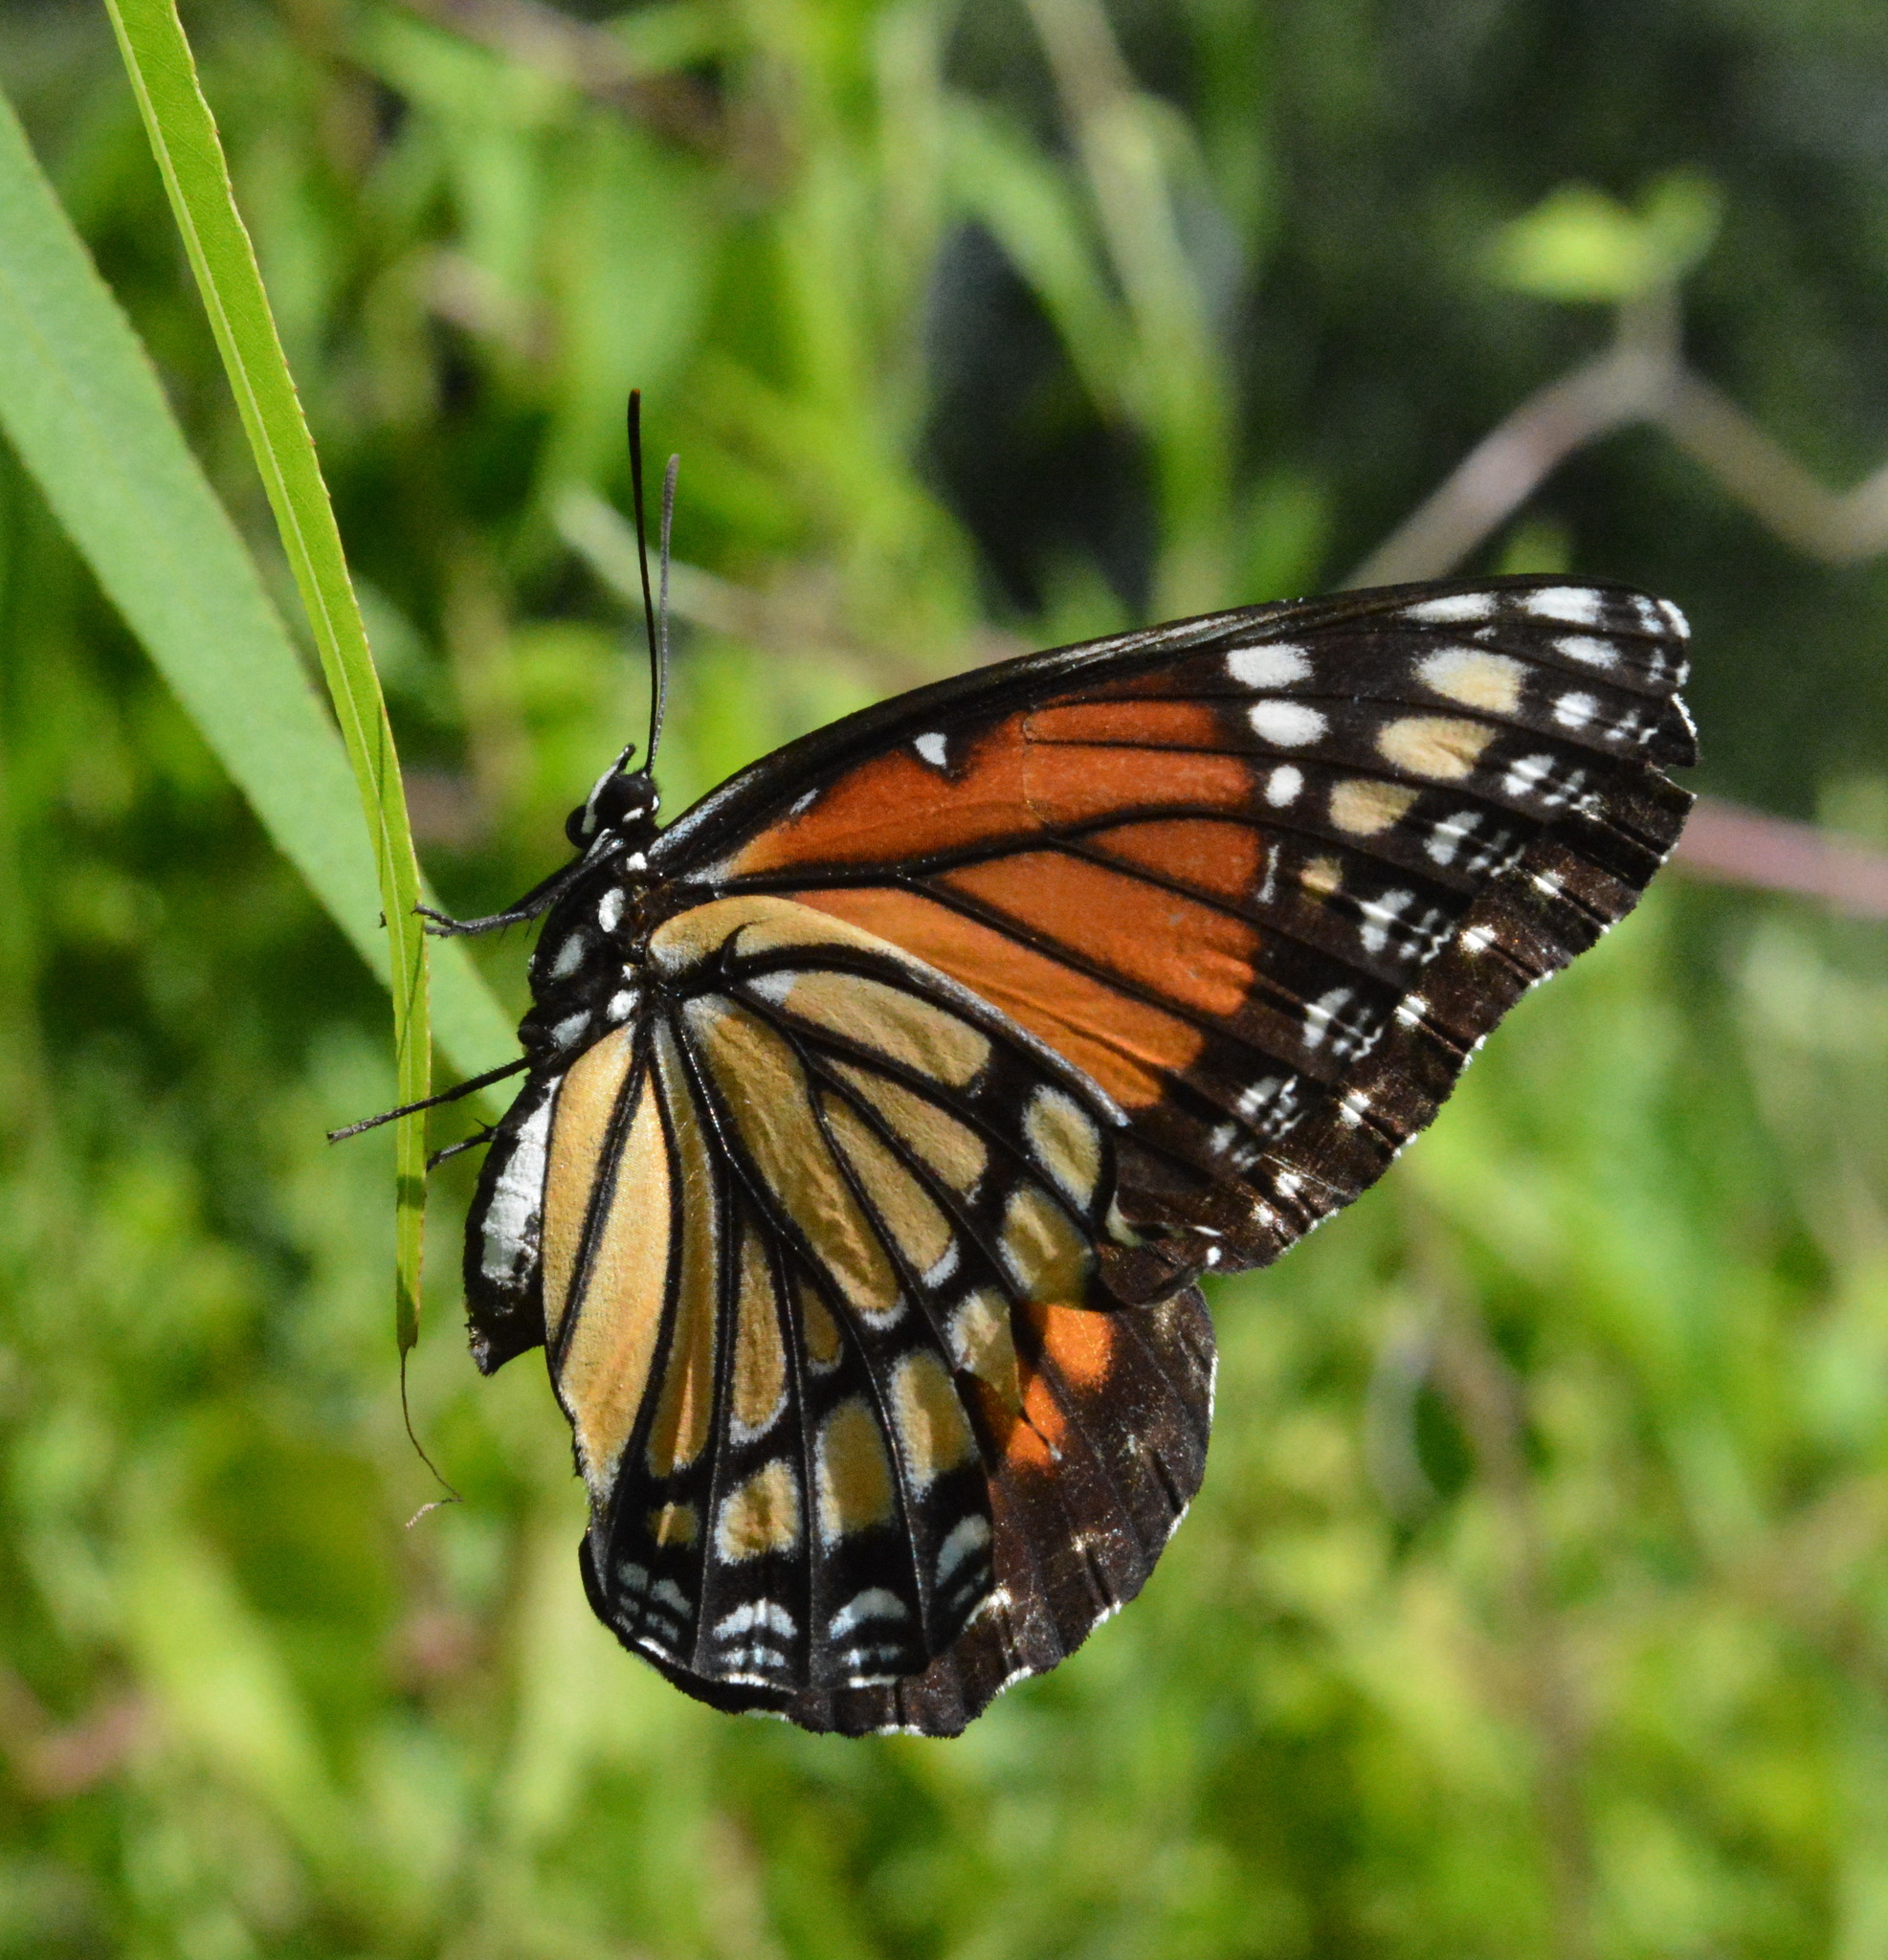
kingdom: Animalia
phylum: Arthropoda
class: Insecta
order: Lepidoptera
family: Nymphalidae
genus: Limenitis
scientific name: Limenitis archippus
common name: Viceroy
